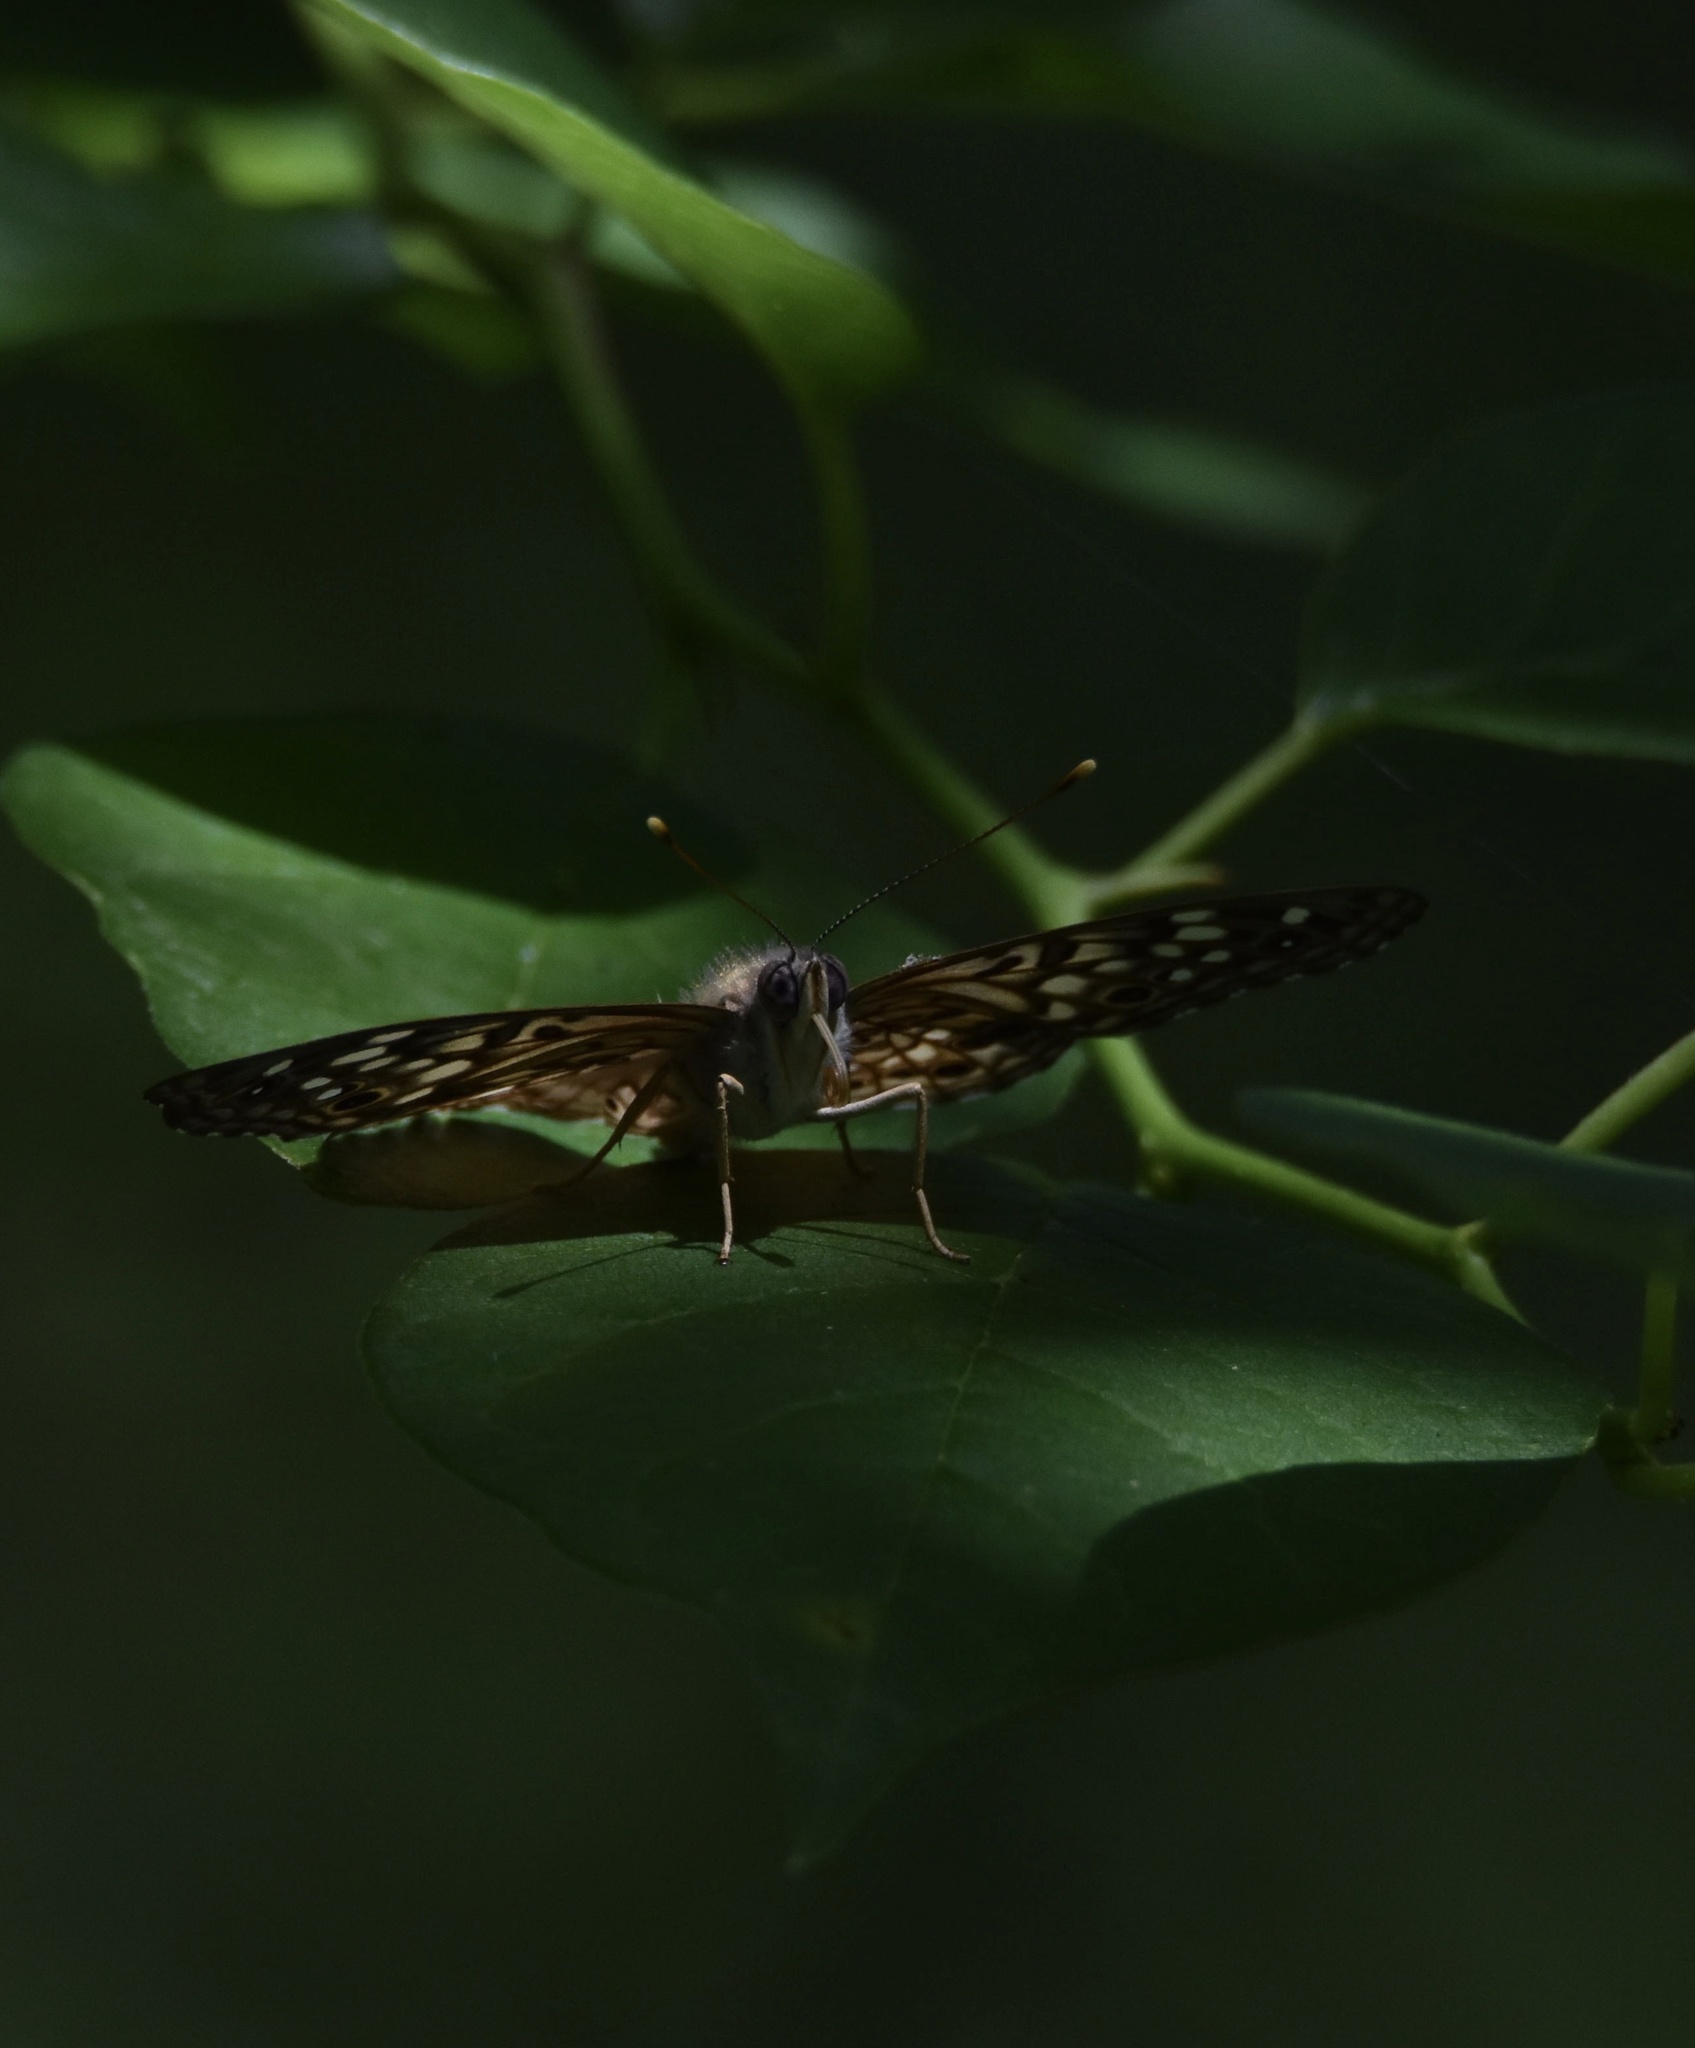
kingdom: Animalia
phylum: Arthropoda
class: Insecta
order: Lepidoptera
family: Nymphalidae
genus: Asterocampa
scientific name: Asterocampa celtis
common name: Hackberry emperor
